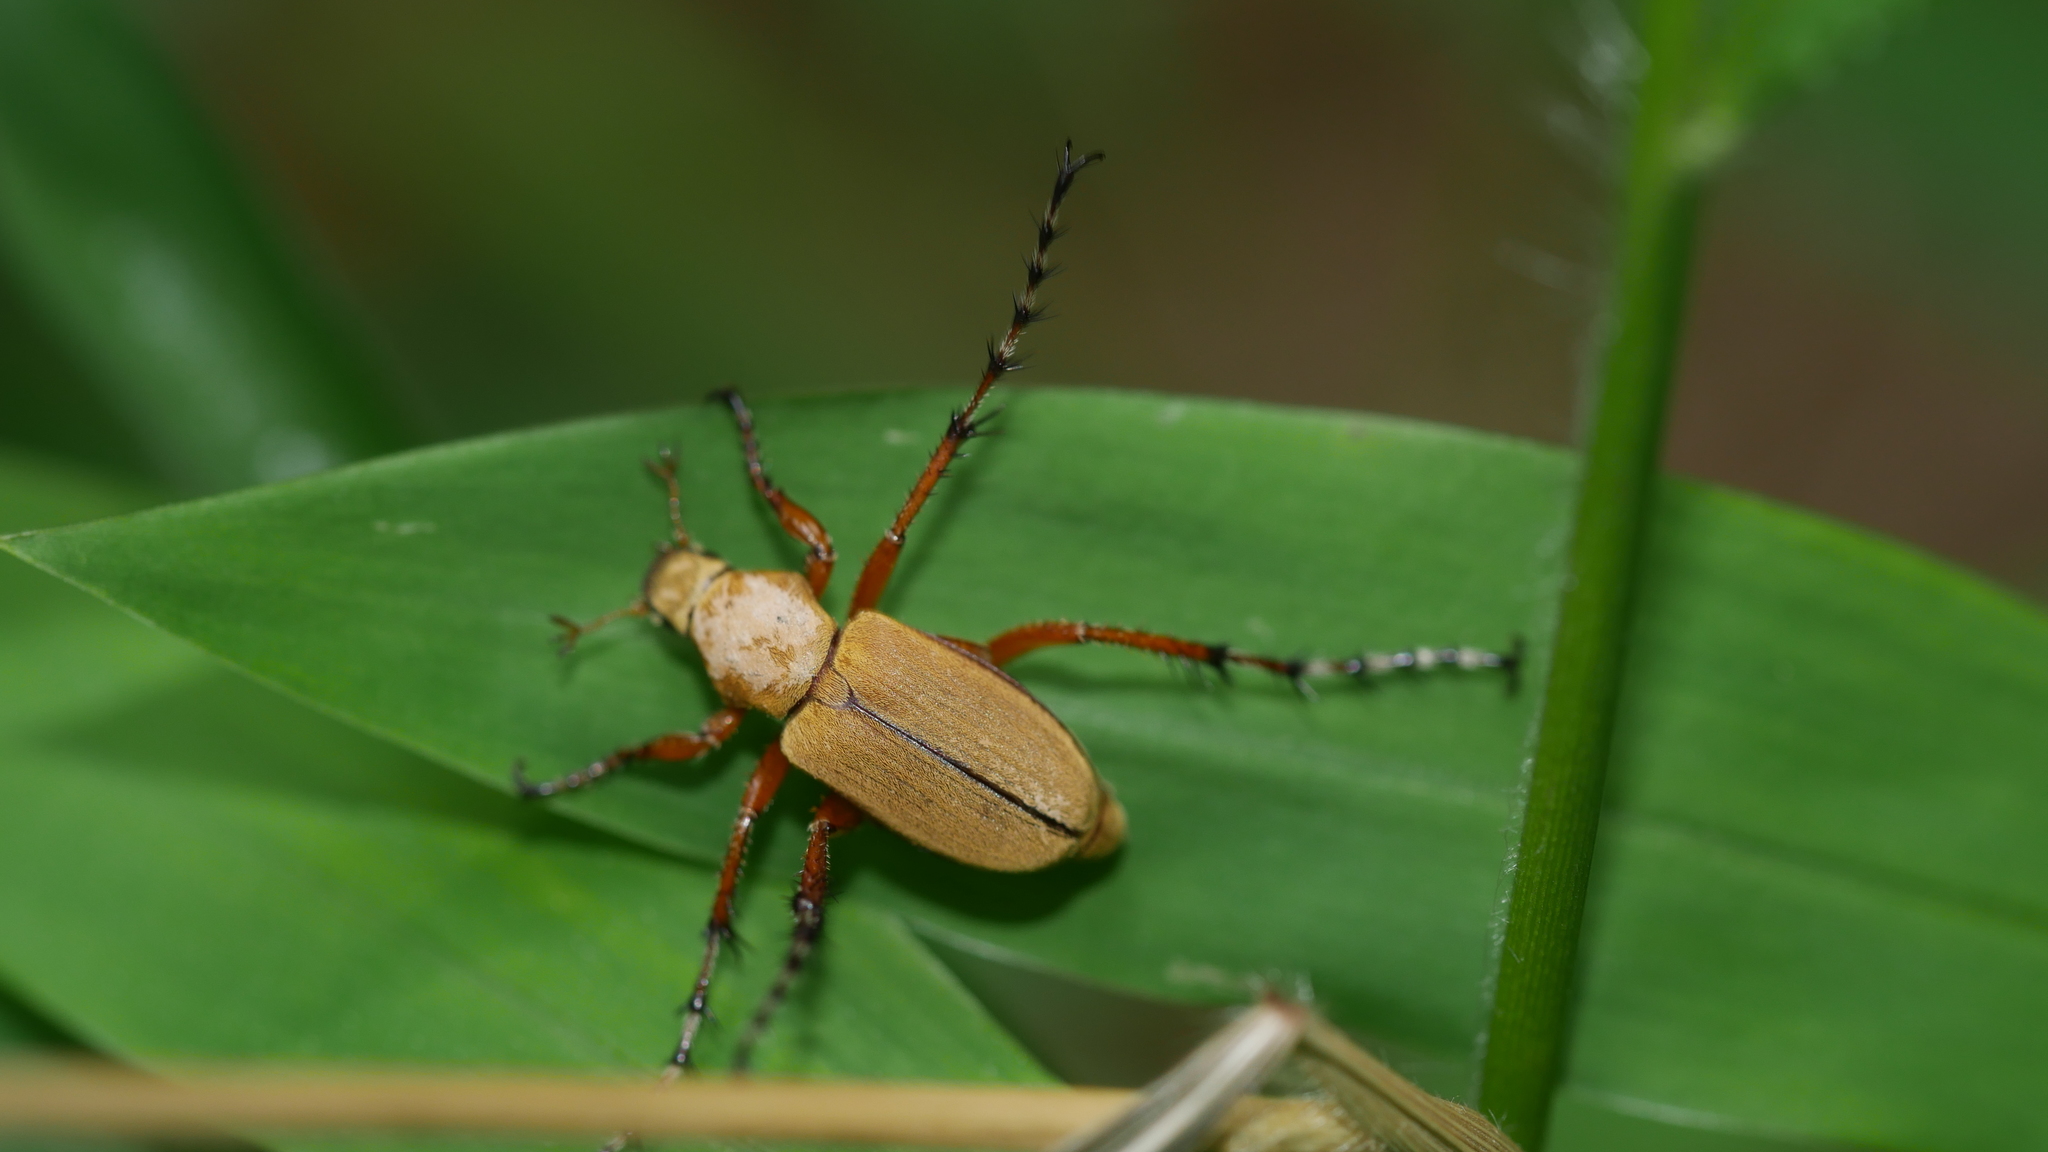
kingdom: Animalia
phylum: Arthropoda
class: Insecta
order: Coleoptera
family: Scarabaeidae
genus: Macrodactylus
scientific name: Macrodactylus subspinosus
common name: American rose chafer
